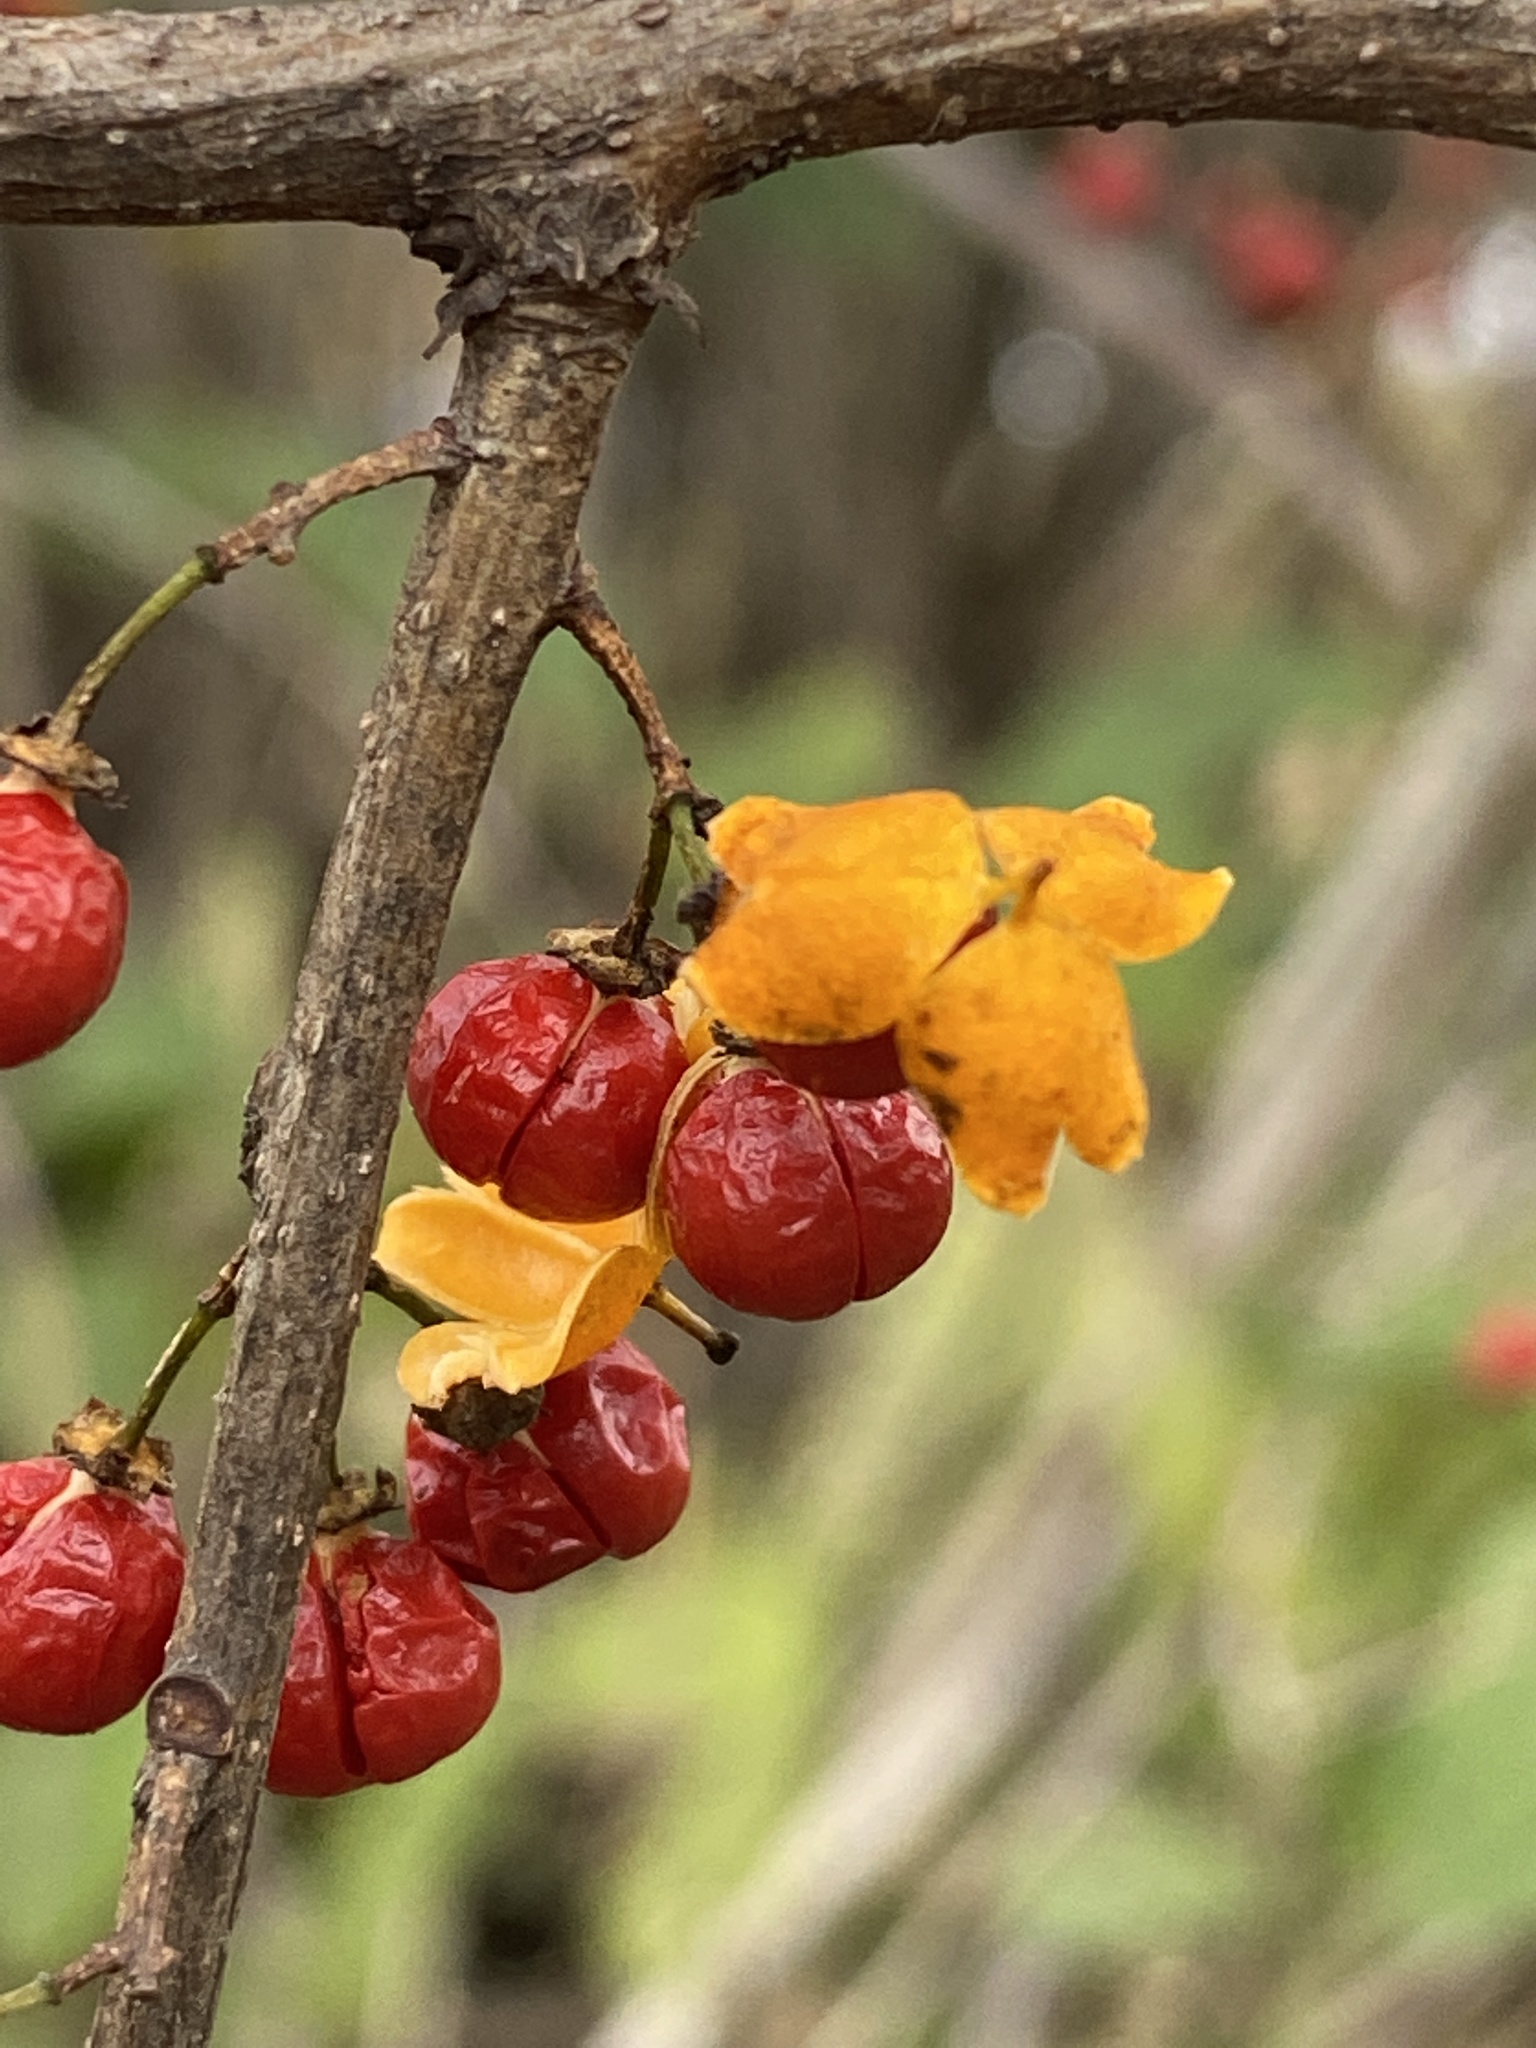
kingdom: Plantae
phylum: Tracheophyta
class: Magnoliopsida
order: Celastrales
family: Celastraceae
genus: Celastrus
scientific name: Celastrus orbiculatus
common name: Oriental bittersweet
